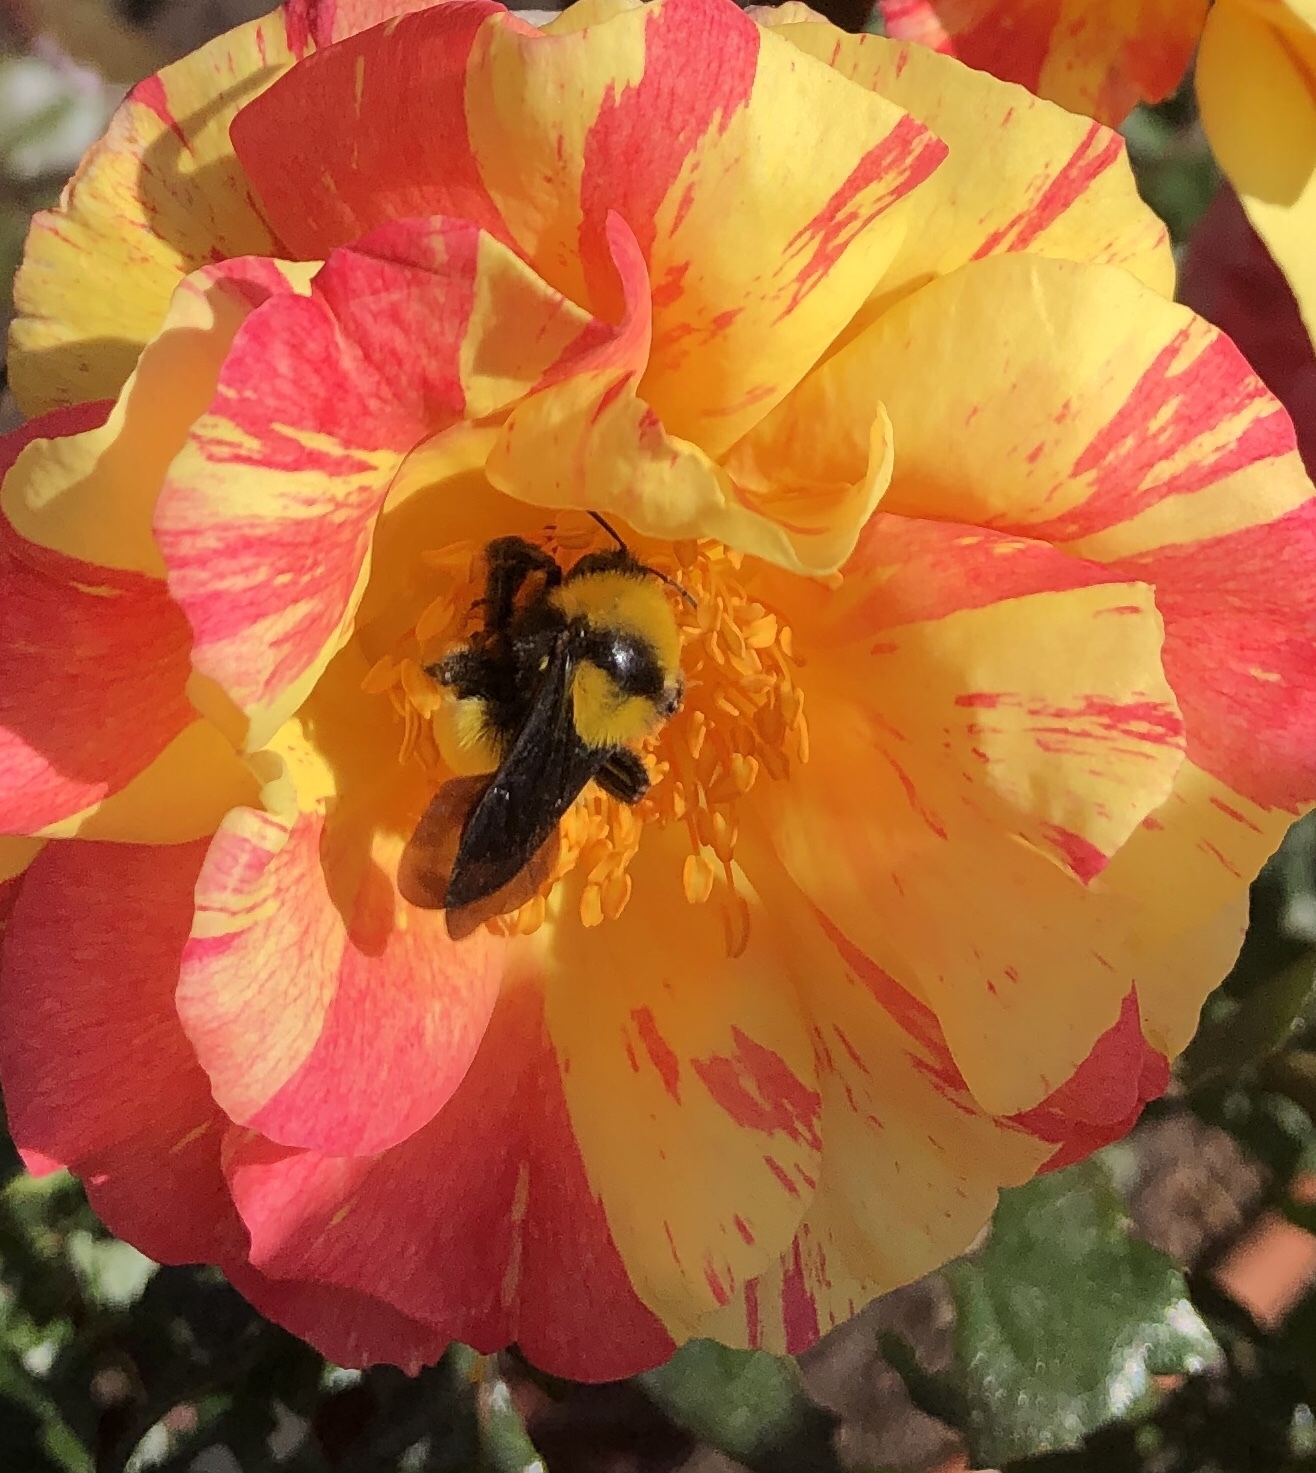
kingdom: Animalia
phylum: Arthropoda
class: Insecta
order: Hymenoptera
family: Apidae
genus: Bombus
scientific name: Bombus sonorus
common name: Sonoran bumble bee
